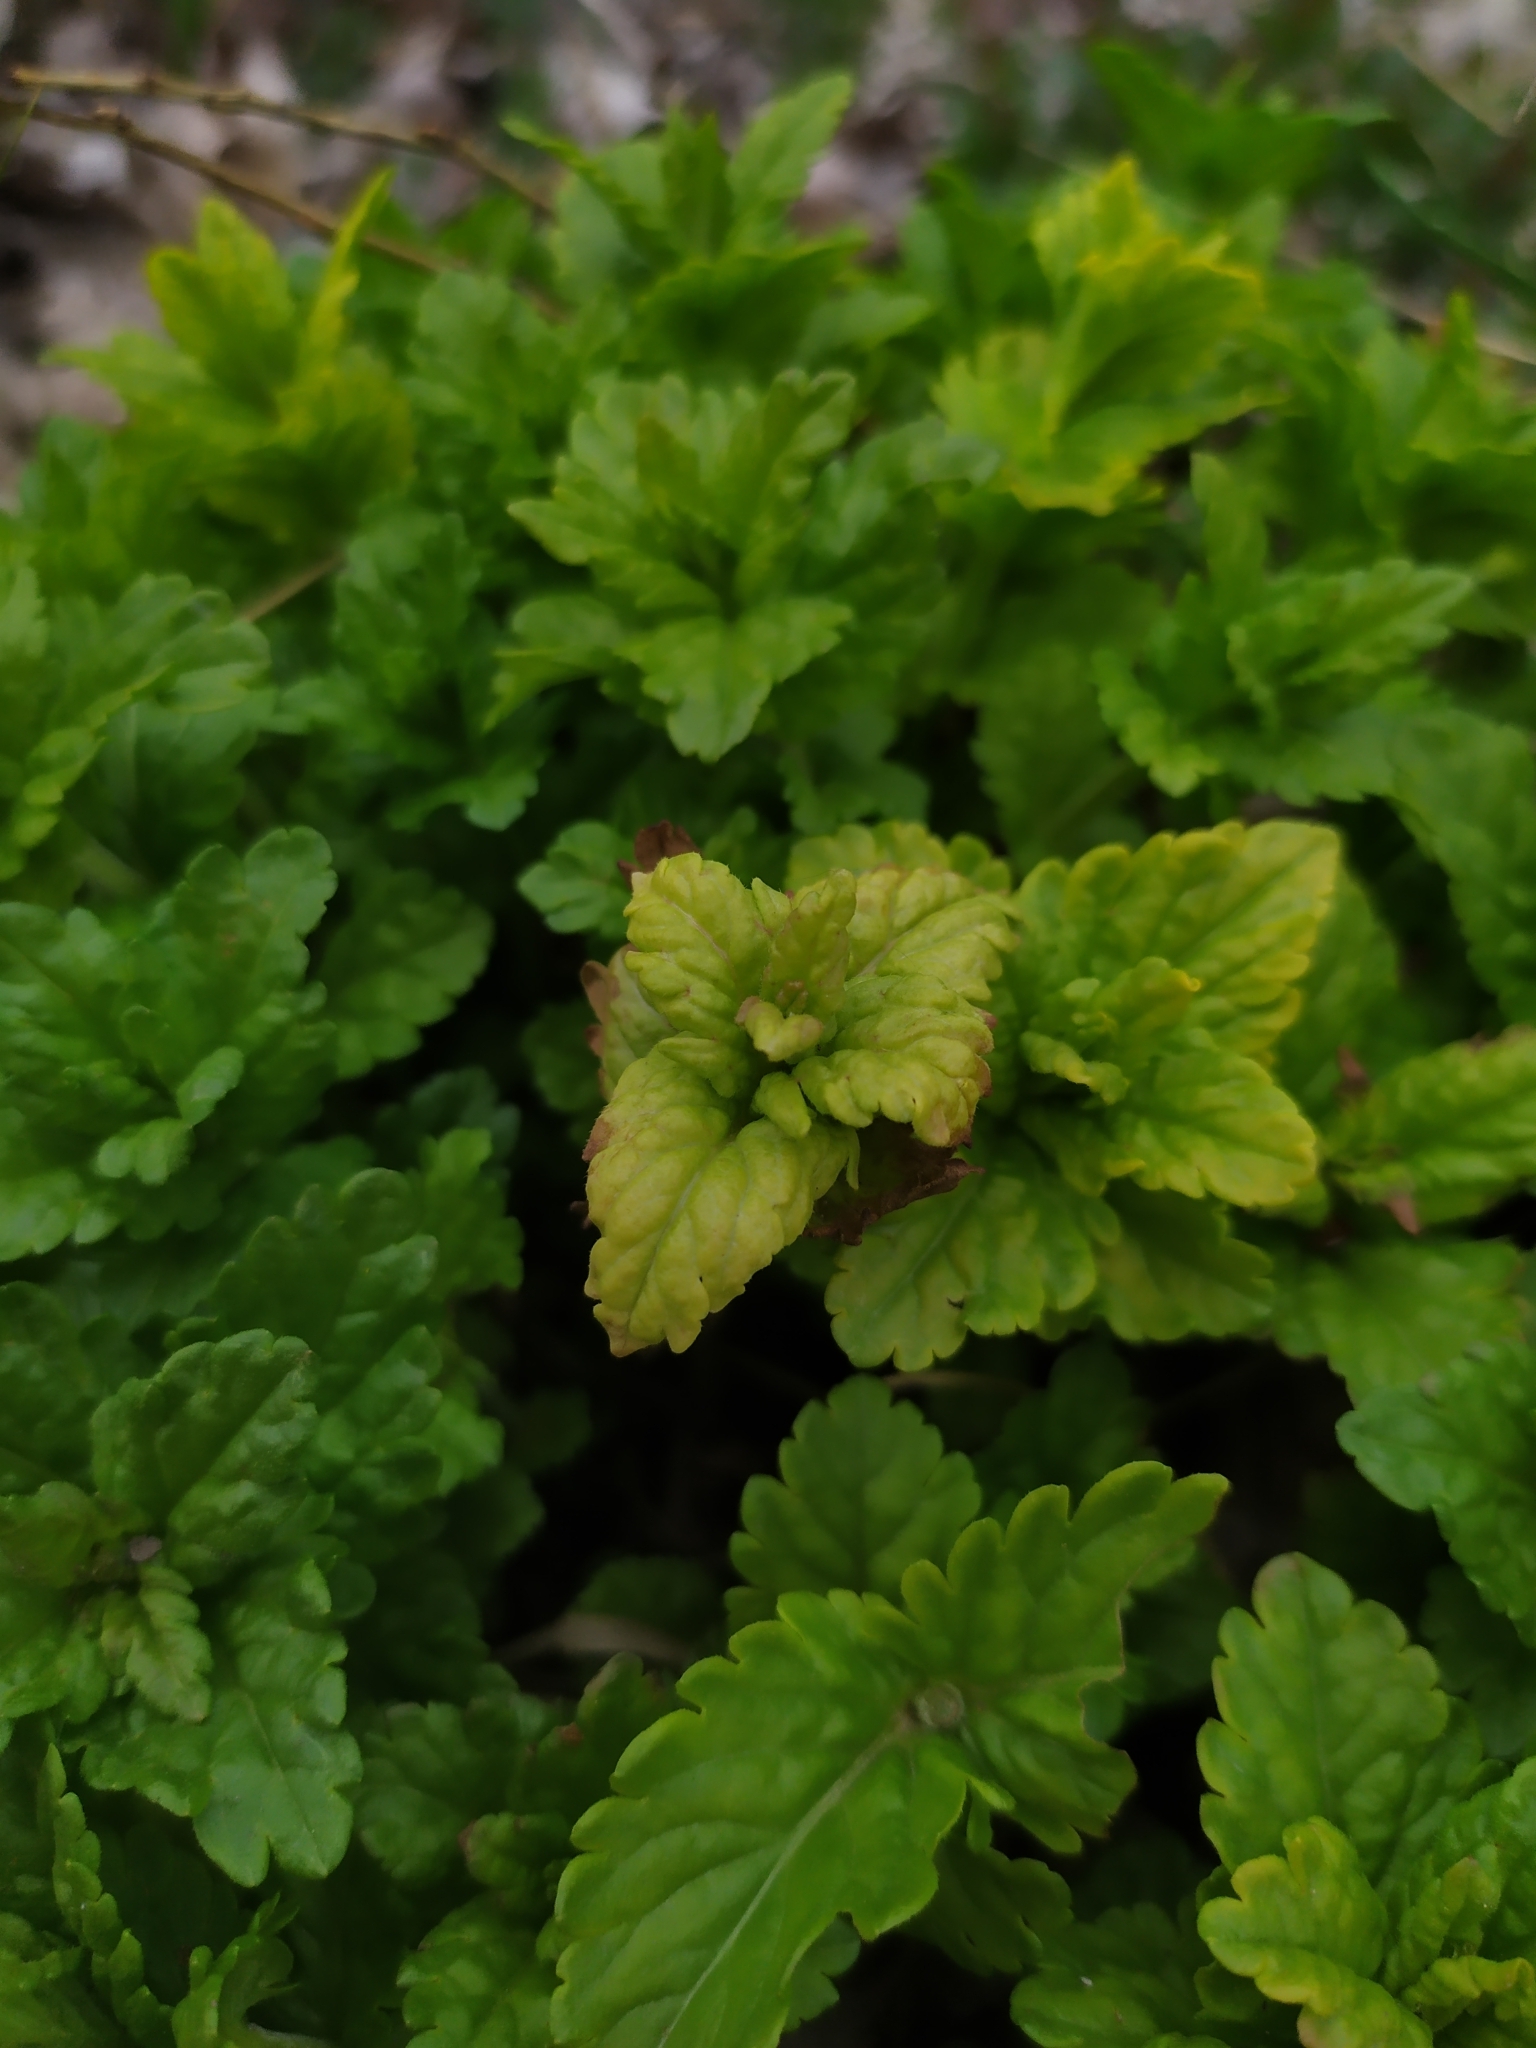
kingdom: Plantae
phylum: Tracheophyta
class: Magnoliopsida
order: Lamiales
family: Plantaginaceae
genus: Veronica
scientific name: Veronica teucrium
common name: Large speedwell
